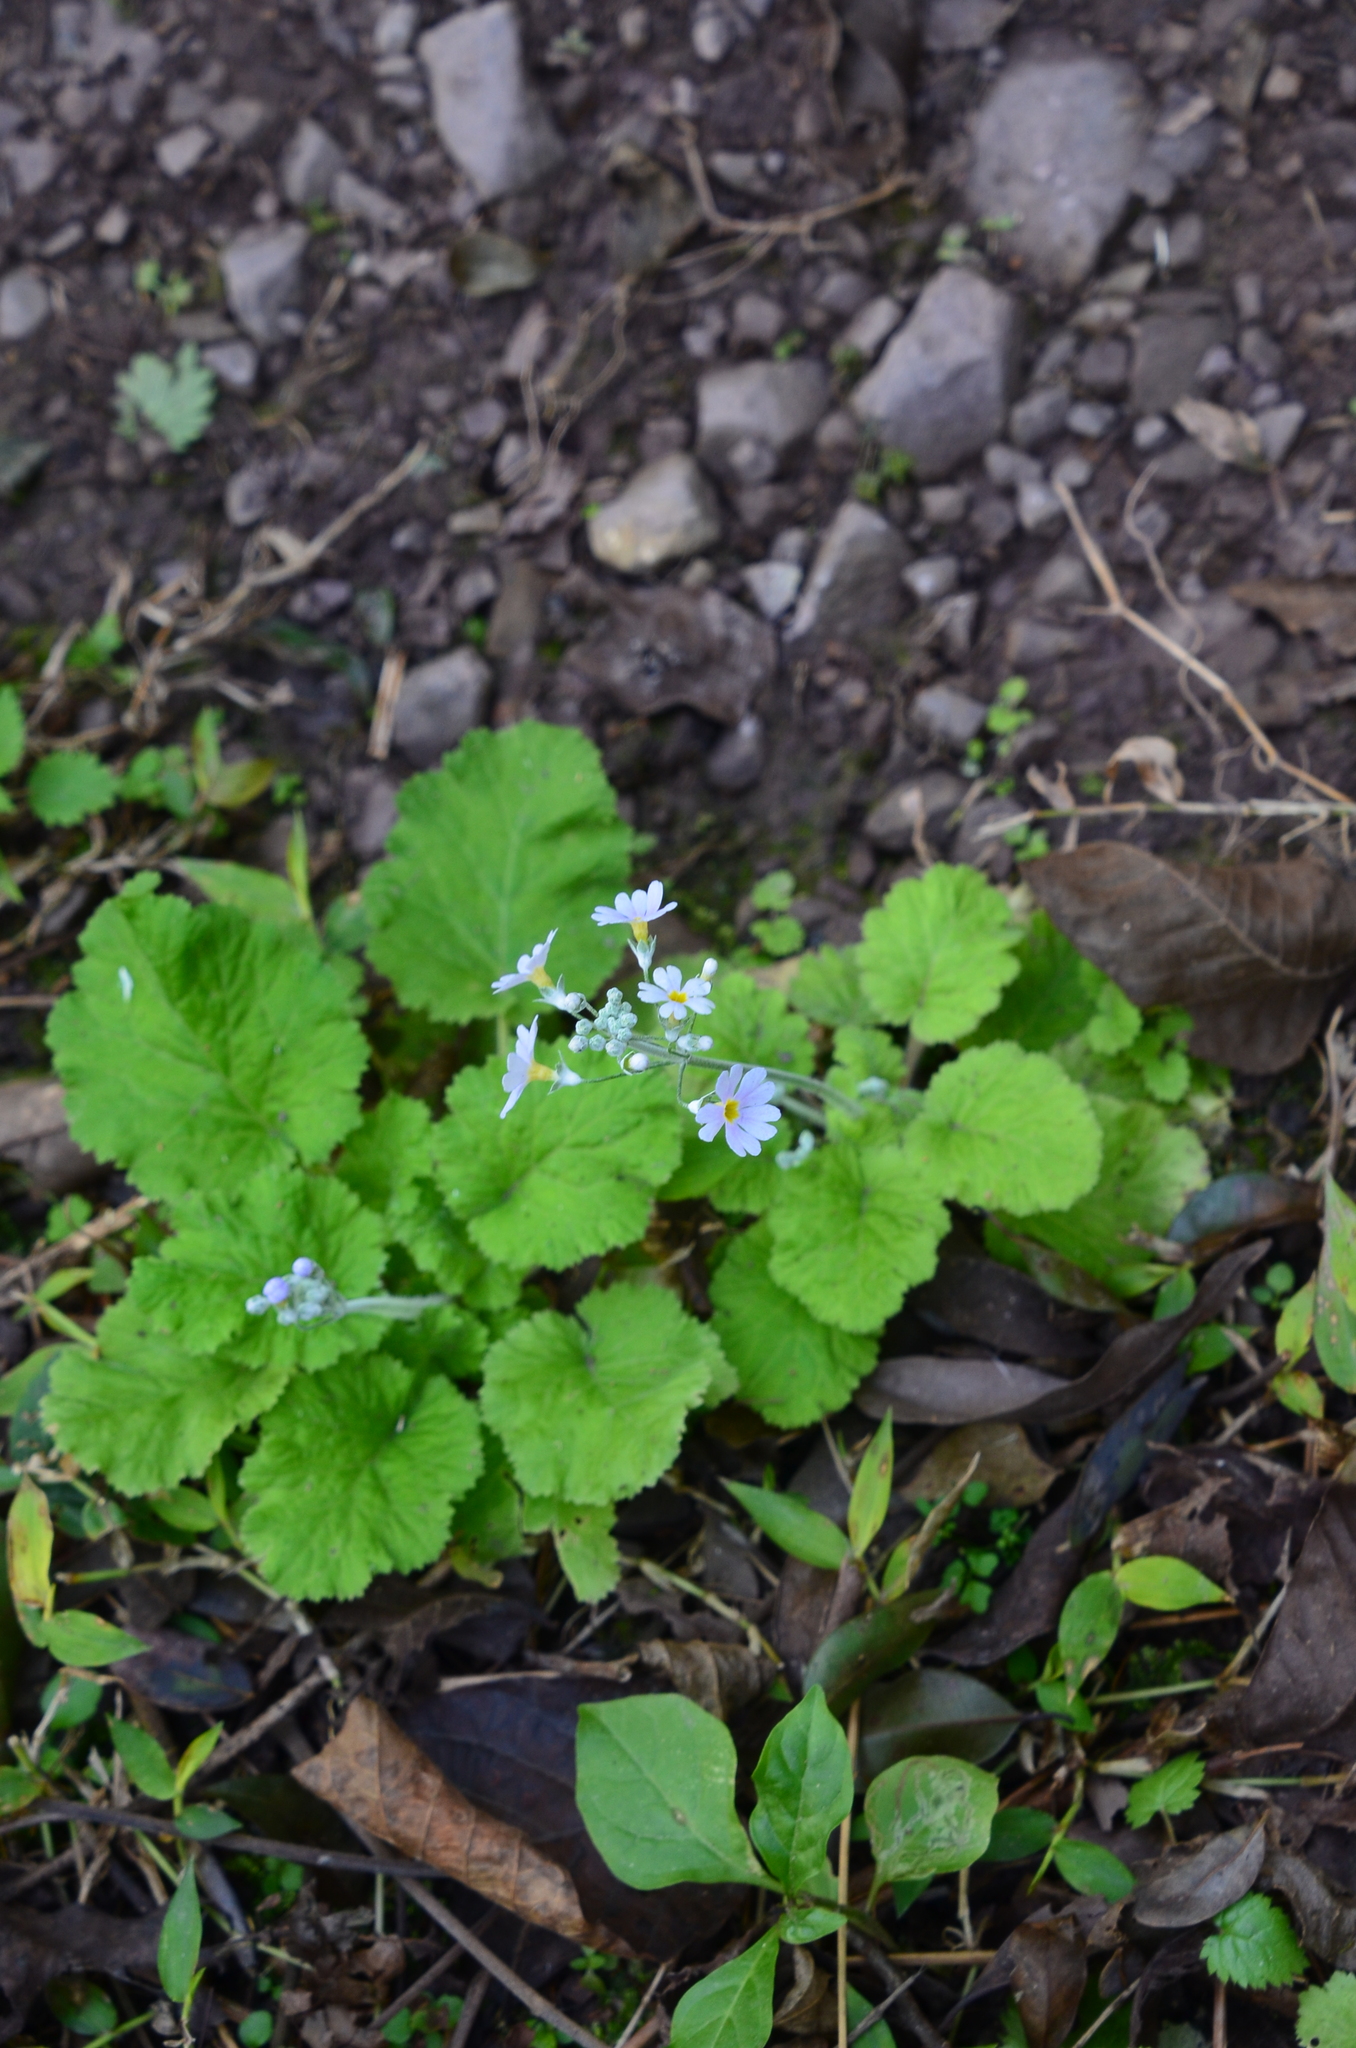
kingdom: Plantae
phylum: Tracheophyta
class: Magnoliopsida
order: Ericales
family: Primulaceae
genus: Primula
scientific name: Primula malacoides
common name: Baby primrose
